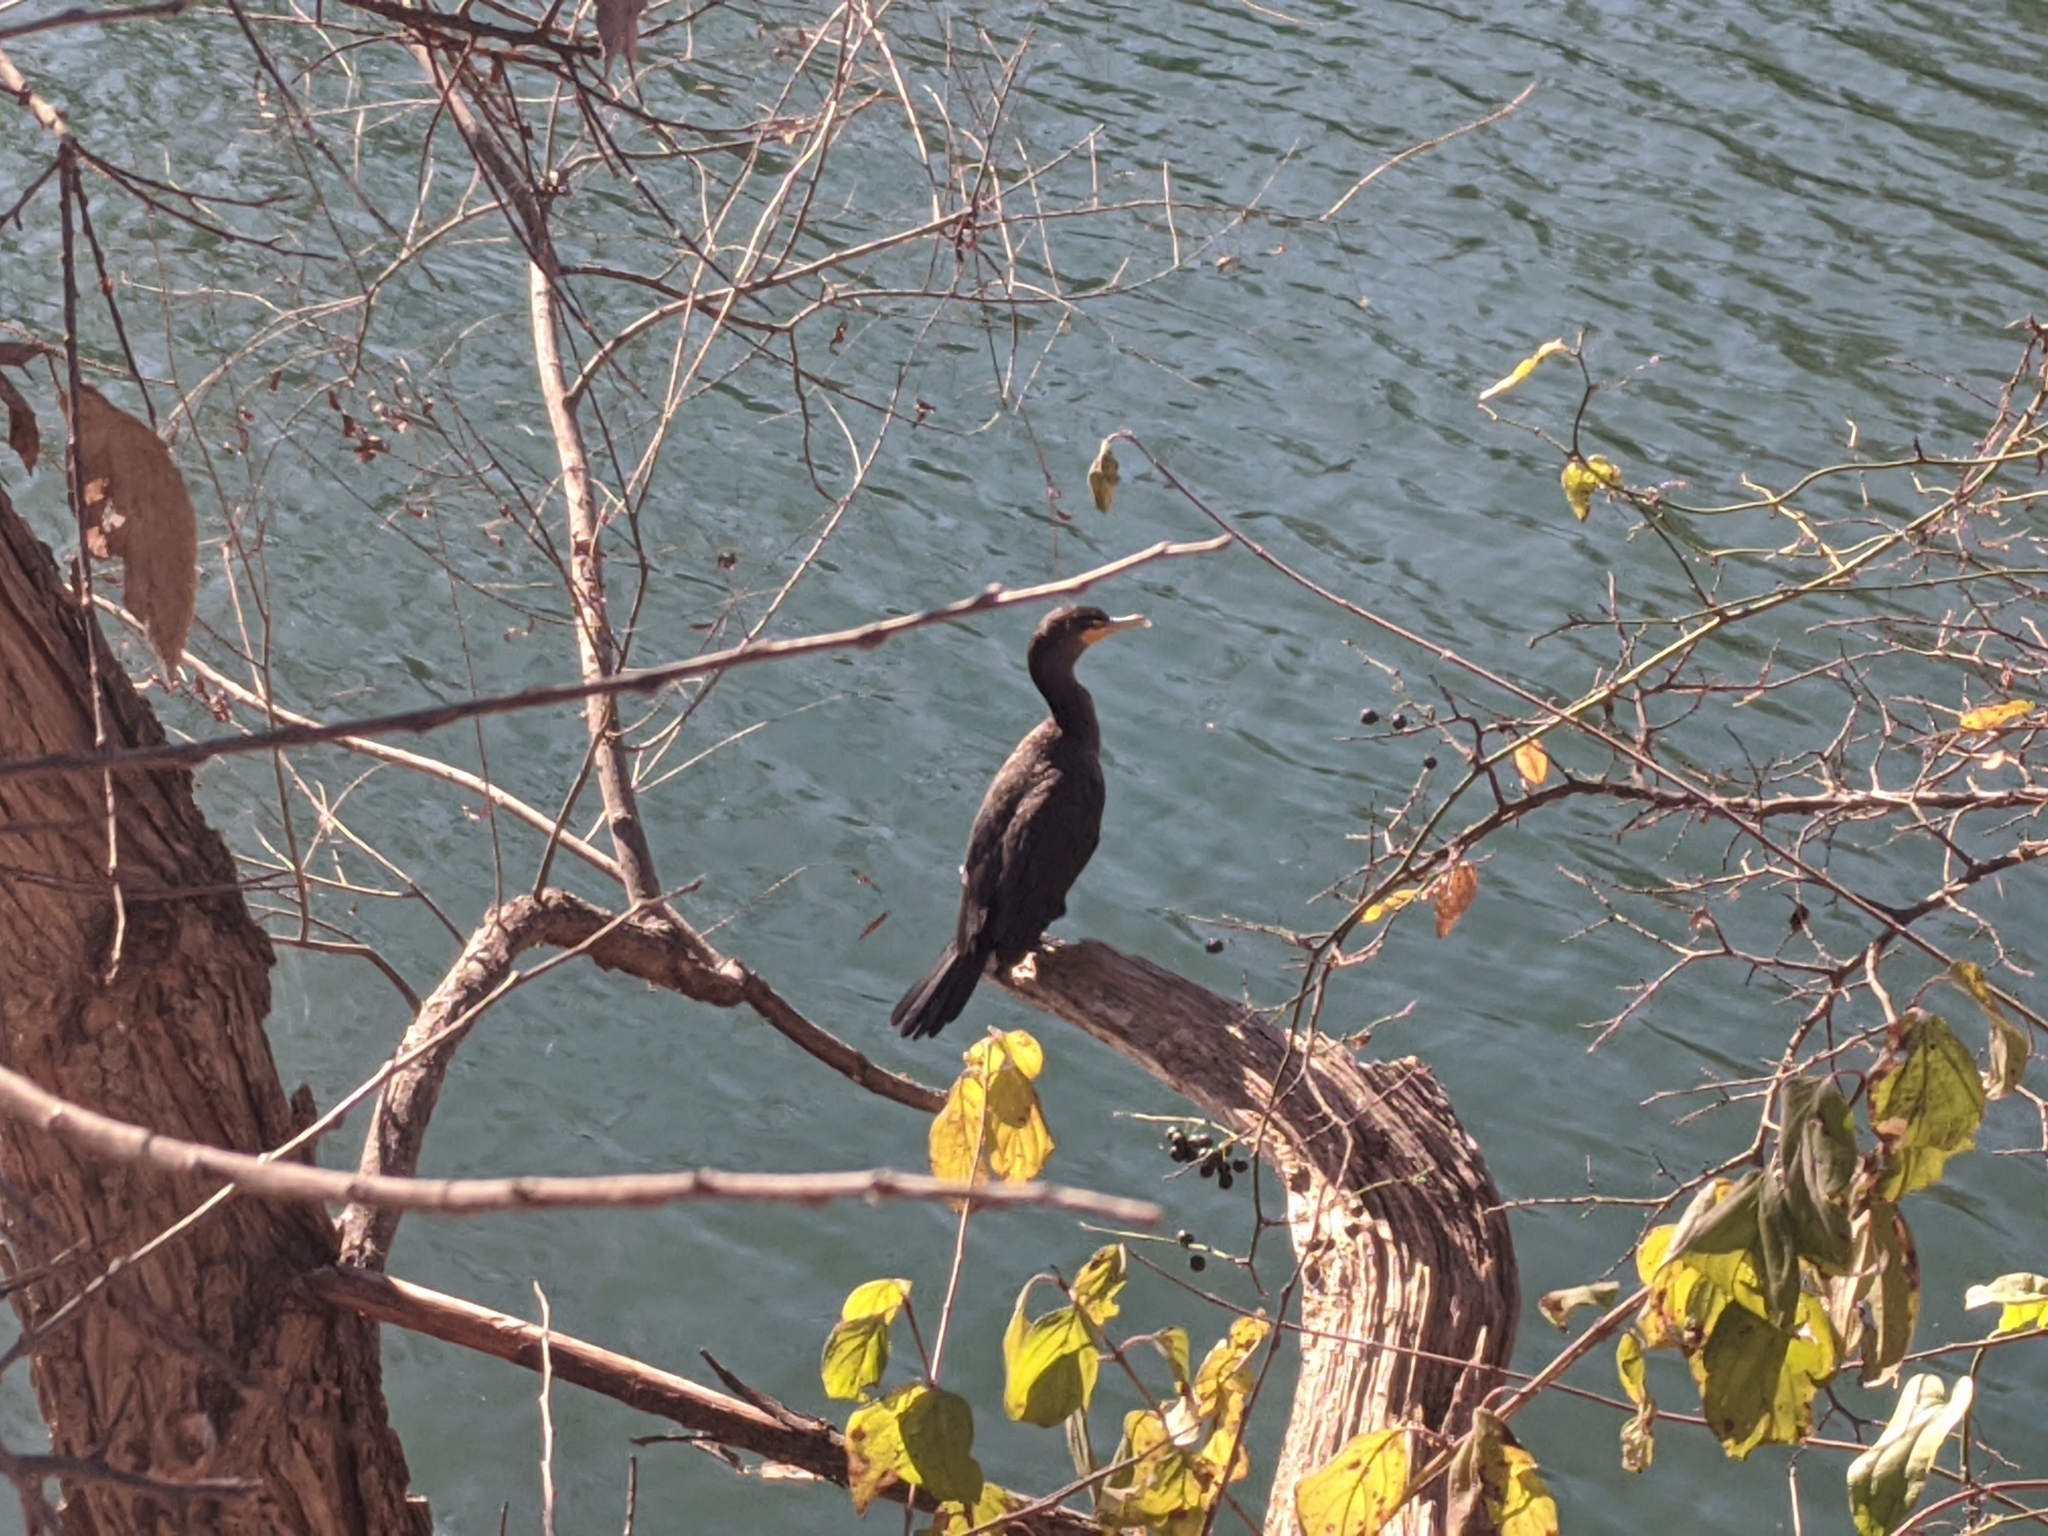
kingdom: Animalia
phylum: Chordata
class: Aves
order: Suliformes
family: Phalacrocoracidae
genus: Phalacrocorax
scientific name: Phalacrocorax auritus
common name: Double-crested cormorant
